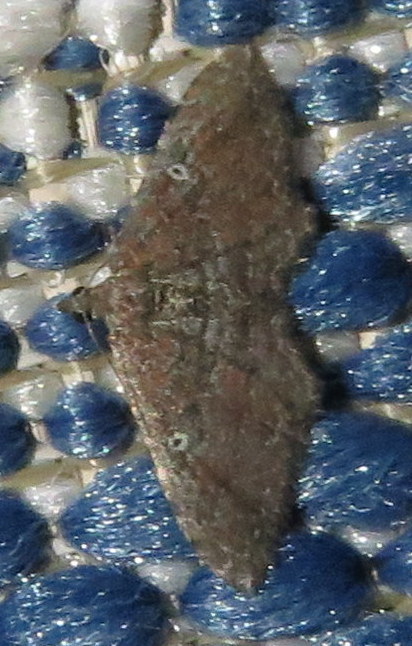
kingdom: Animalia
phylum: Arthropoda
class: Insecta
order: Lepidoptera
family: Geometridae
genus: Orthonama
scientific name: Orthonama obstipata
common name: The gem
